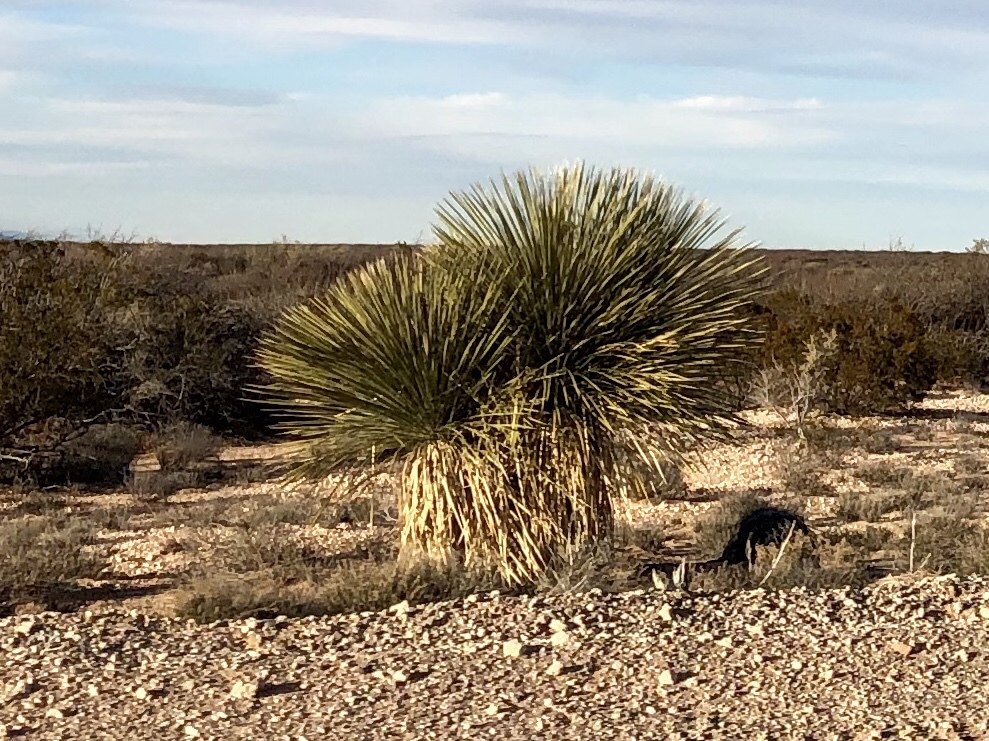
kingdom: Plantae
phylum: Tracheophyta
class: Liliopsida
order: Asparagales
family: Asparagaceae
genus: Yucca
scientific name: Yucca elata
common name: Palmella
